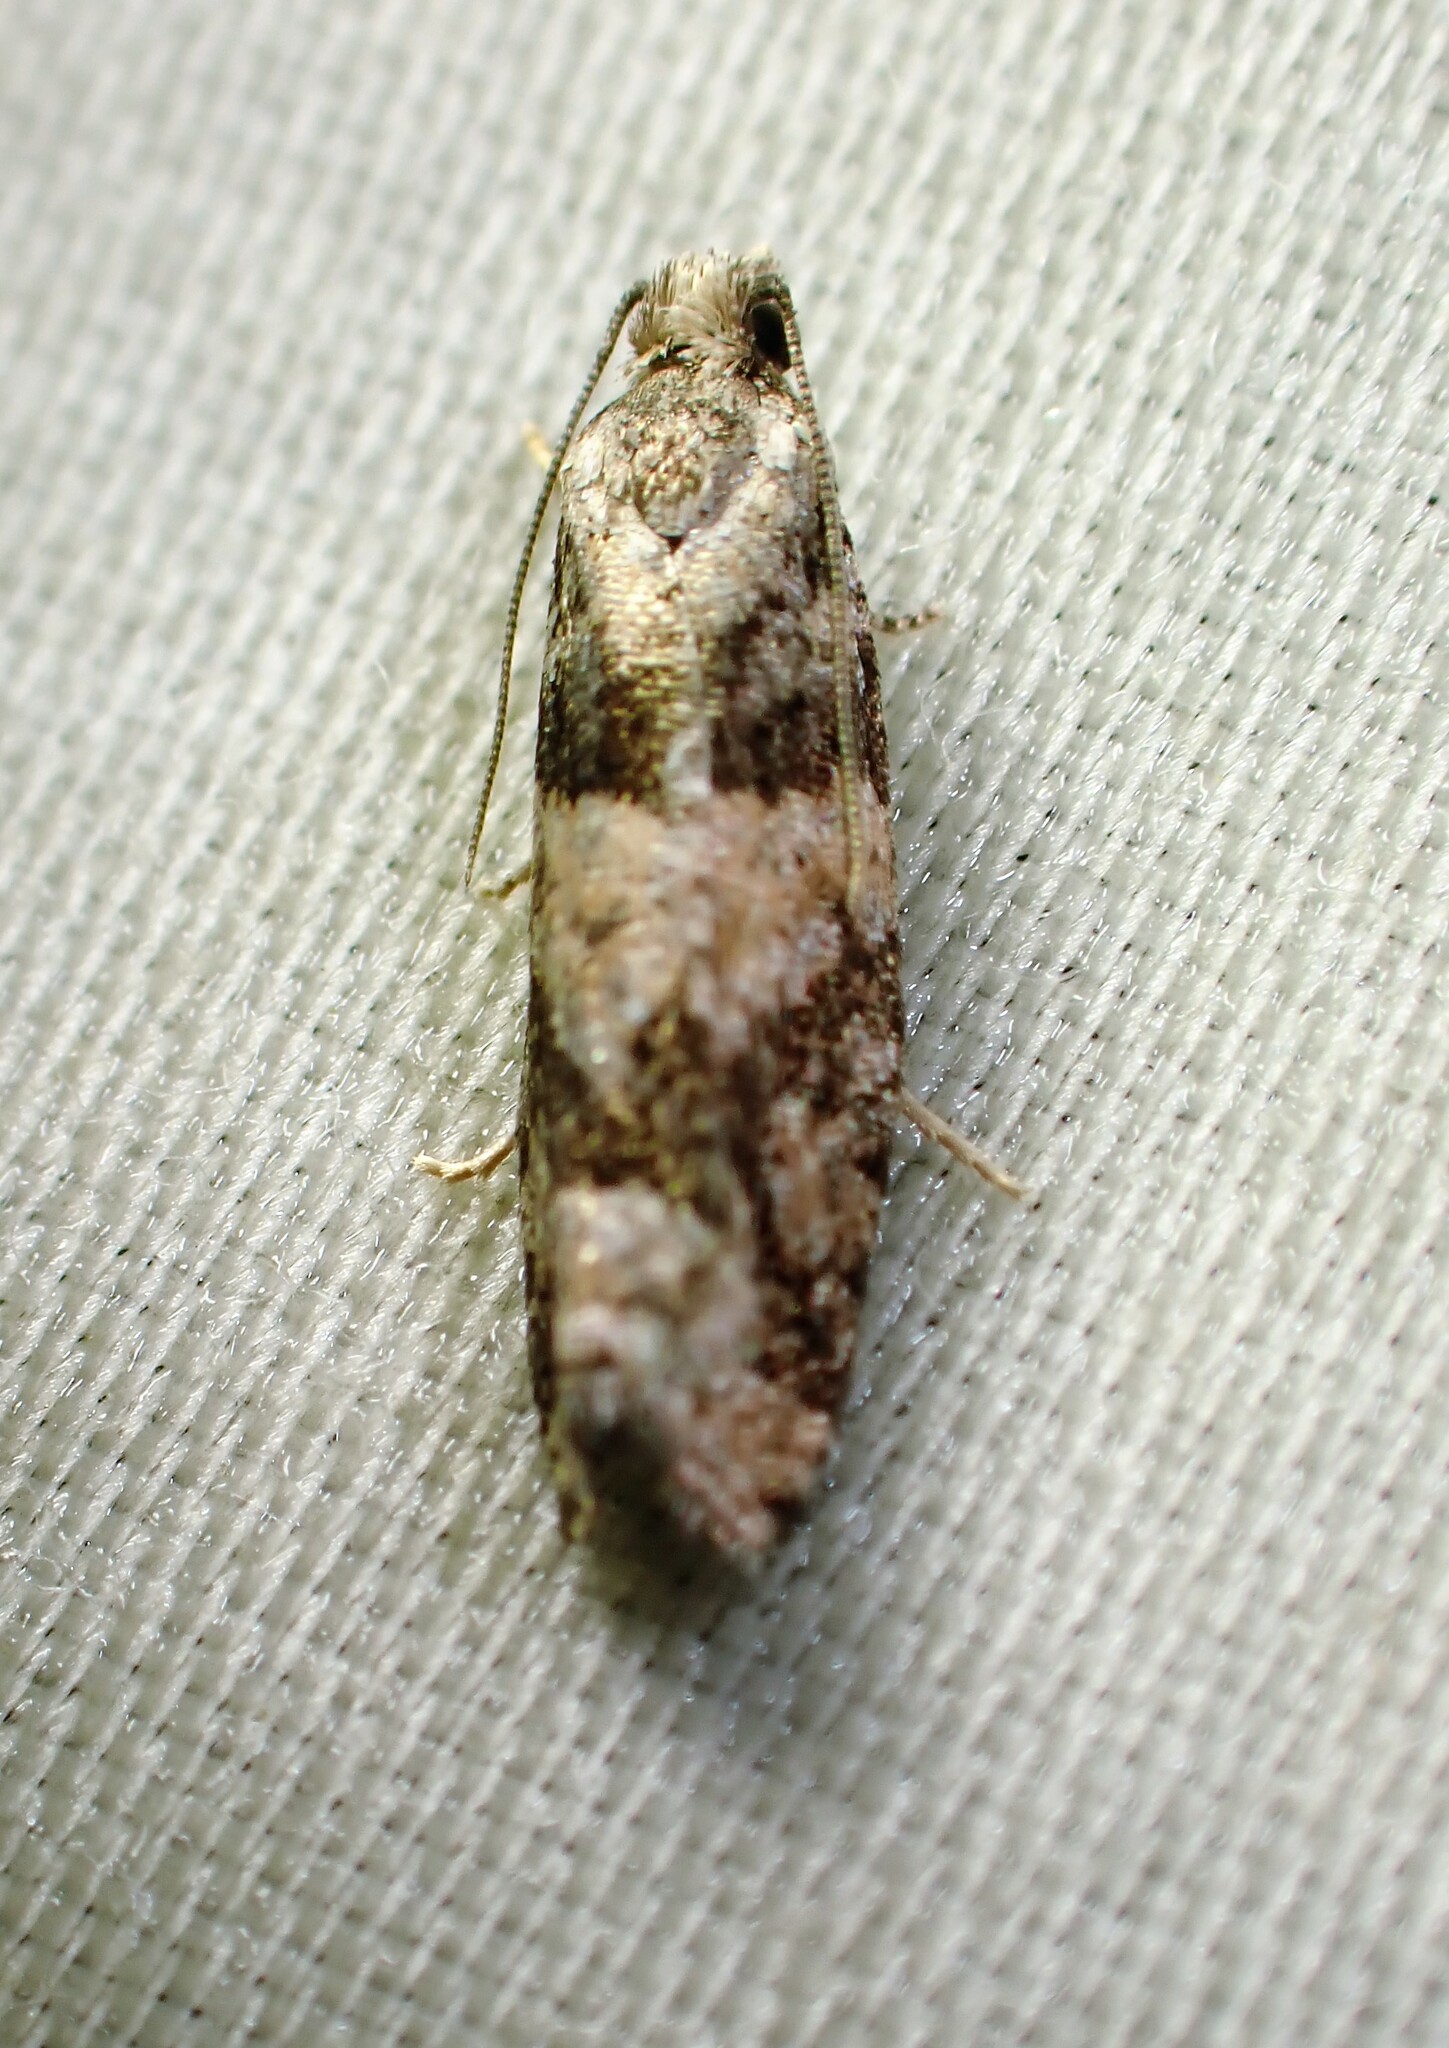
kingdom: Animalia
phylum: Arthropoda
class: Insecta
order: Lepidoptera
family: Tortricidae
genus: Epinotia
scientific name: Epinotia radicana
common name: Red-striped needleworm moth
